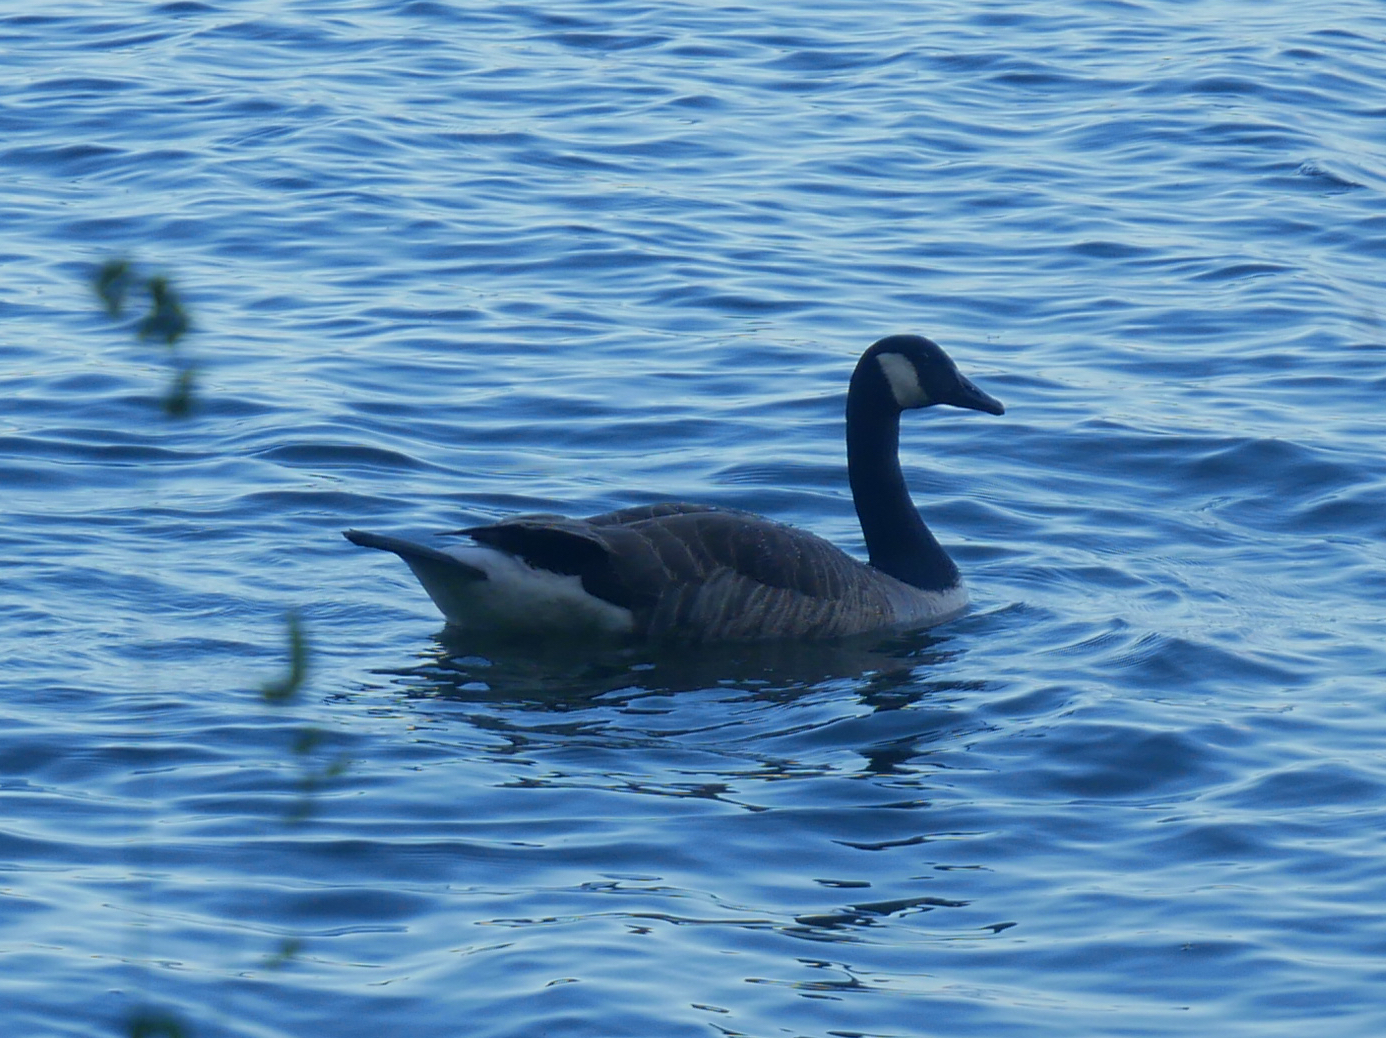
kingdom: Animalia
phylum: Chordata
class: Aves
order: Anseriformes
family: Anatidae
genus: Branta
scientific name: Branta canadensis
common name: Canada goose
